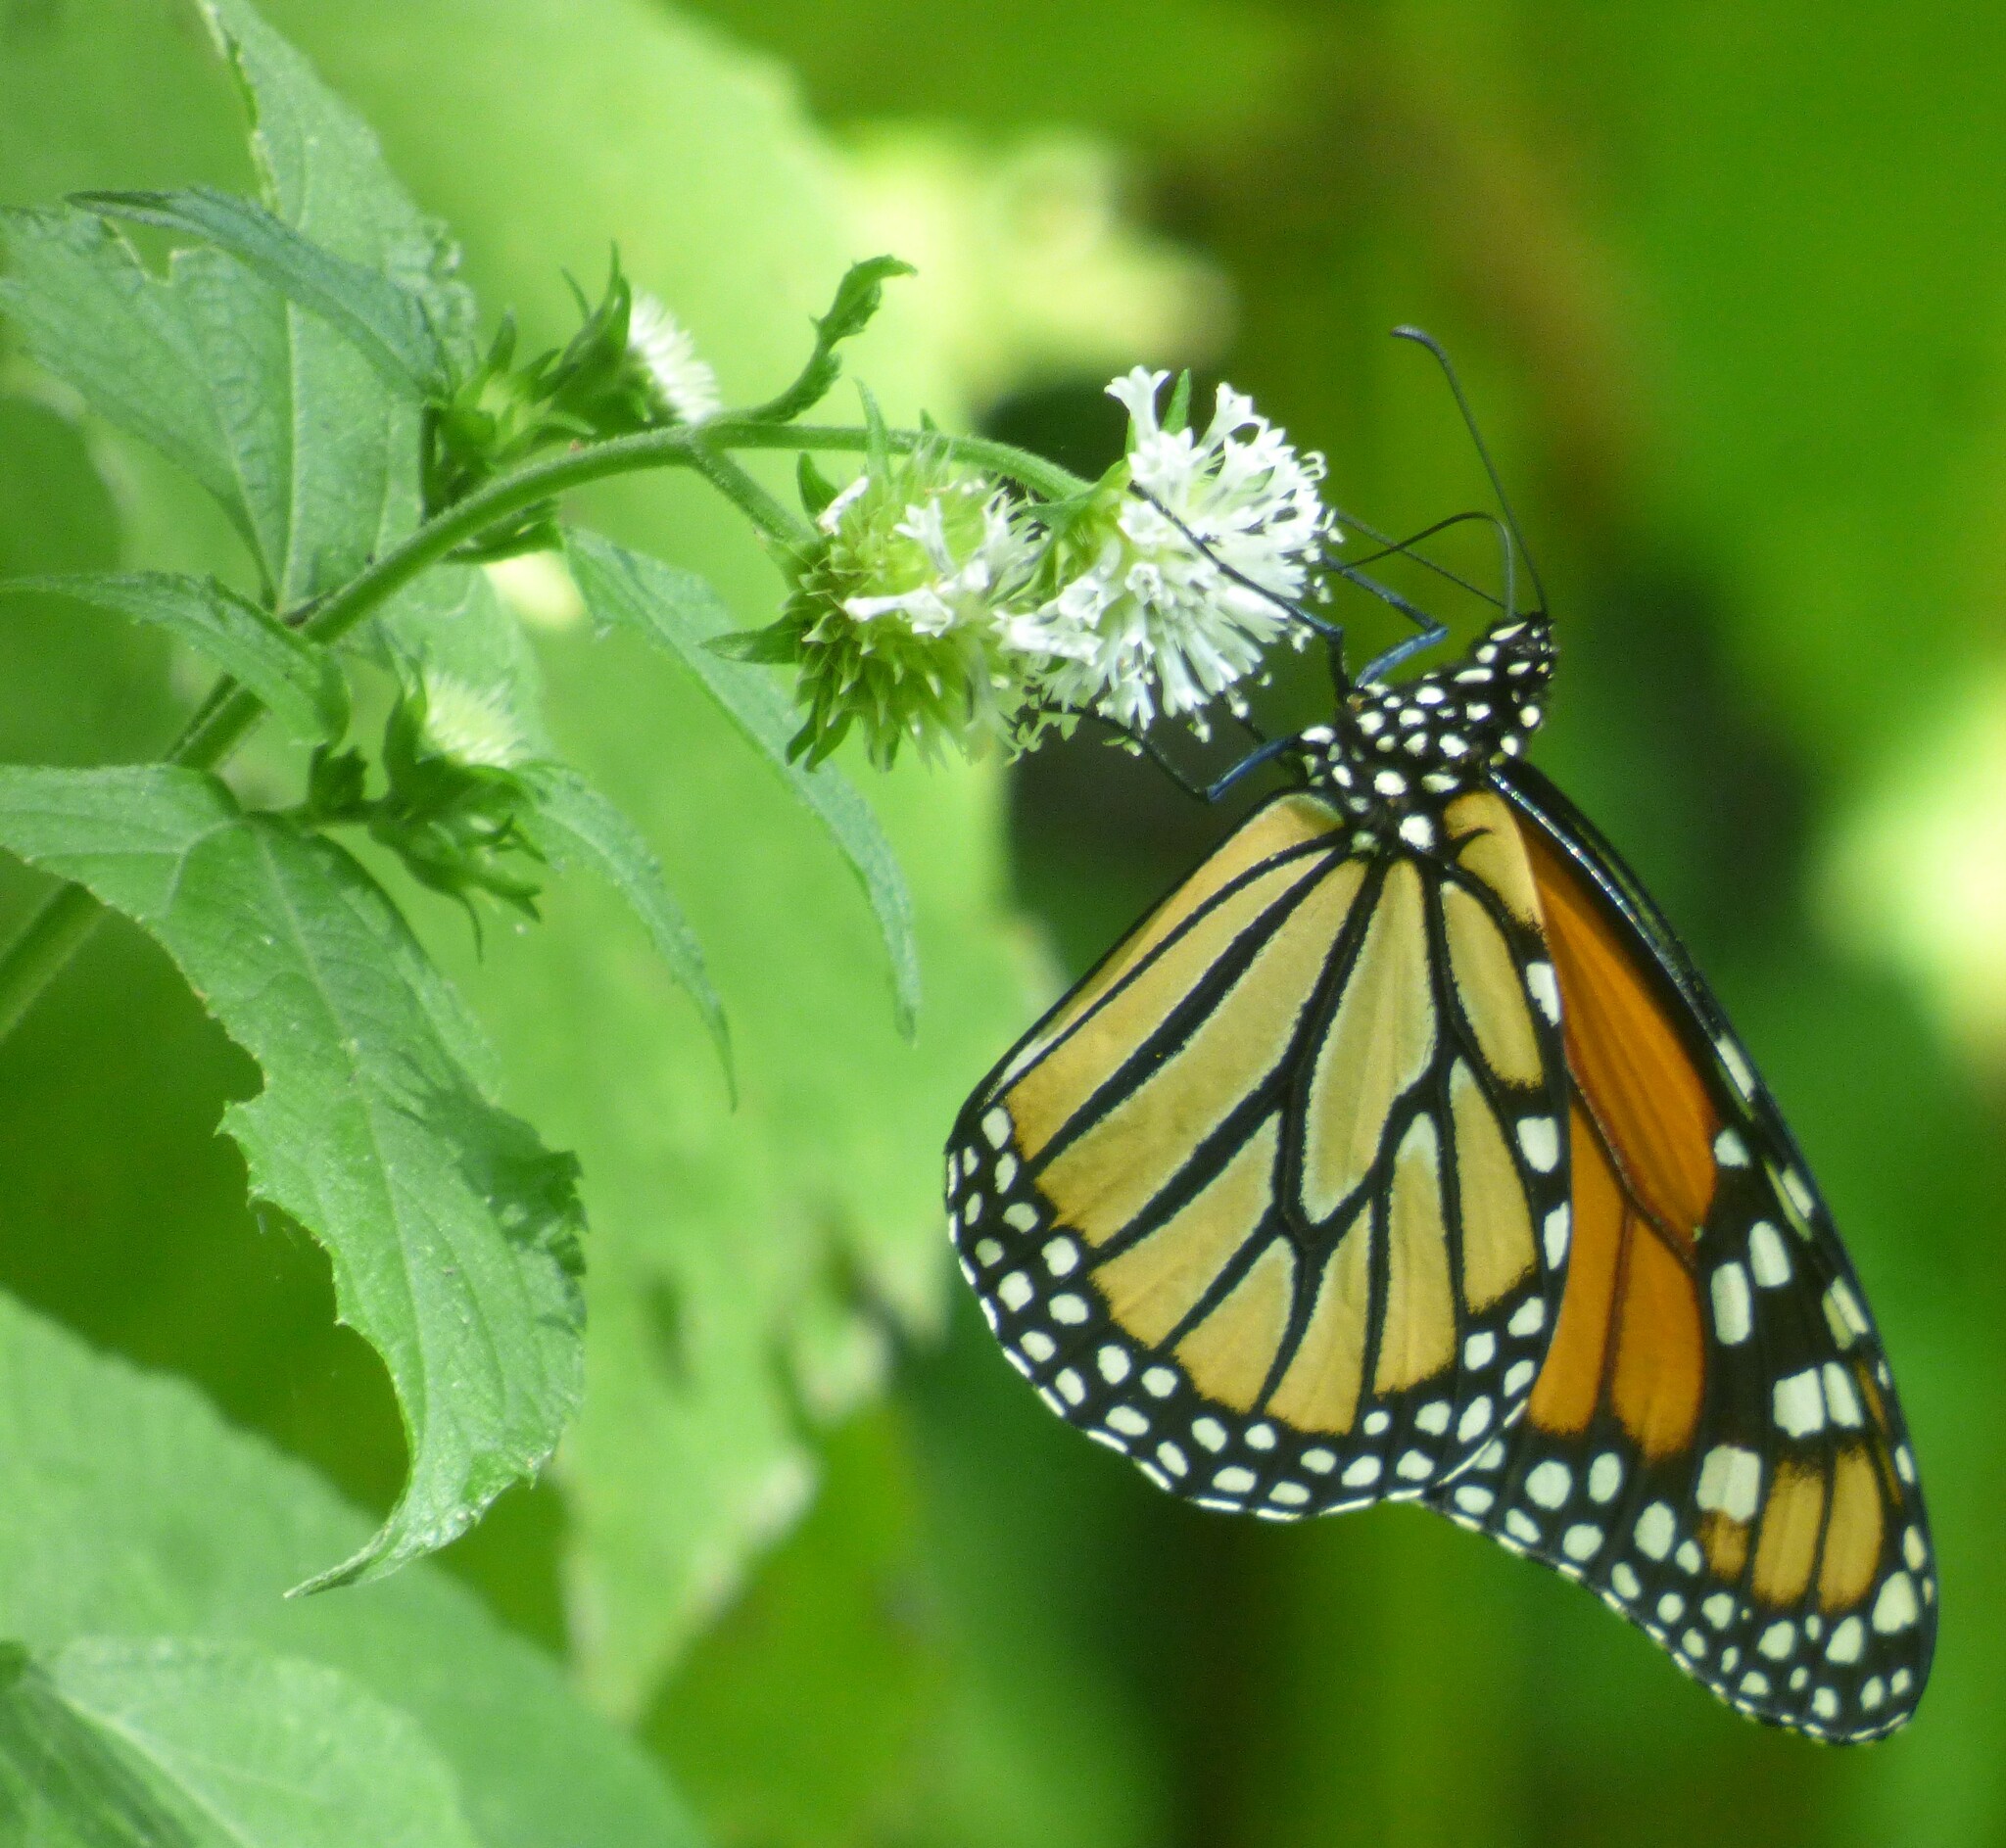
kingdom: Animalia
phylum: Arthropoda
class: Insecta
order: Lepidoptera
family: Nymphalidae
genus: Danaus
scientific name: Danaus plexippus
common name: Monarch
